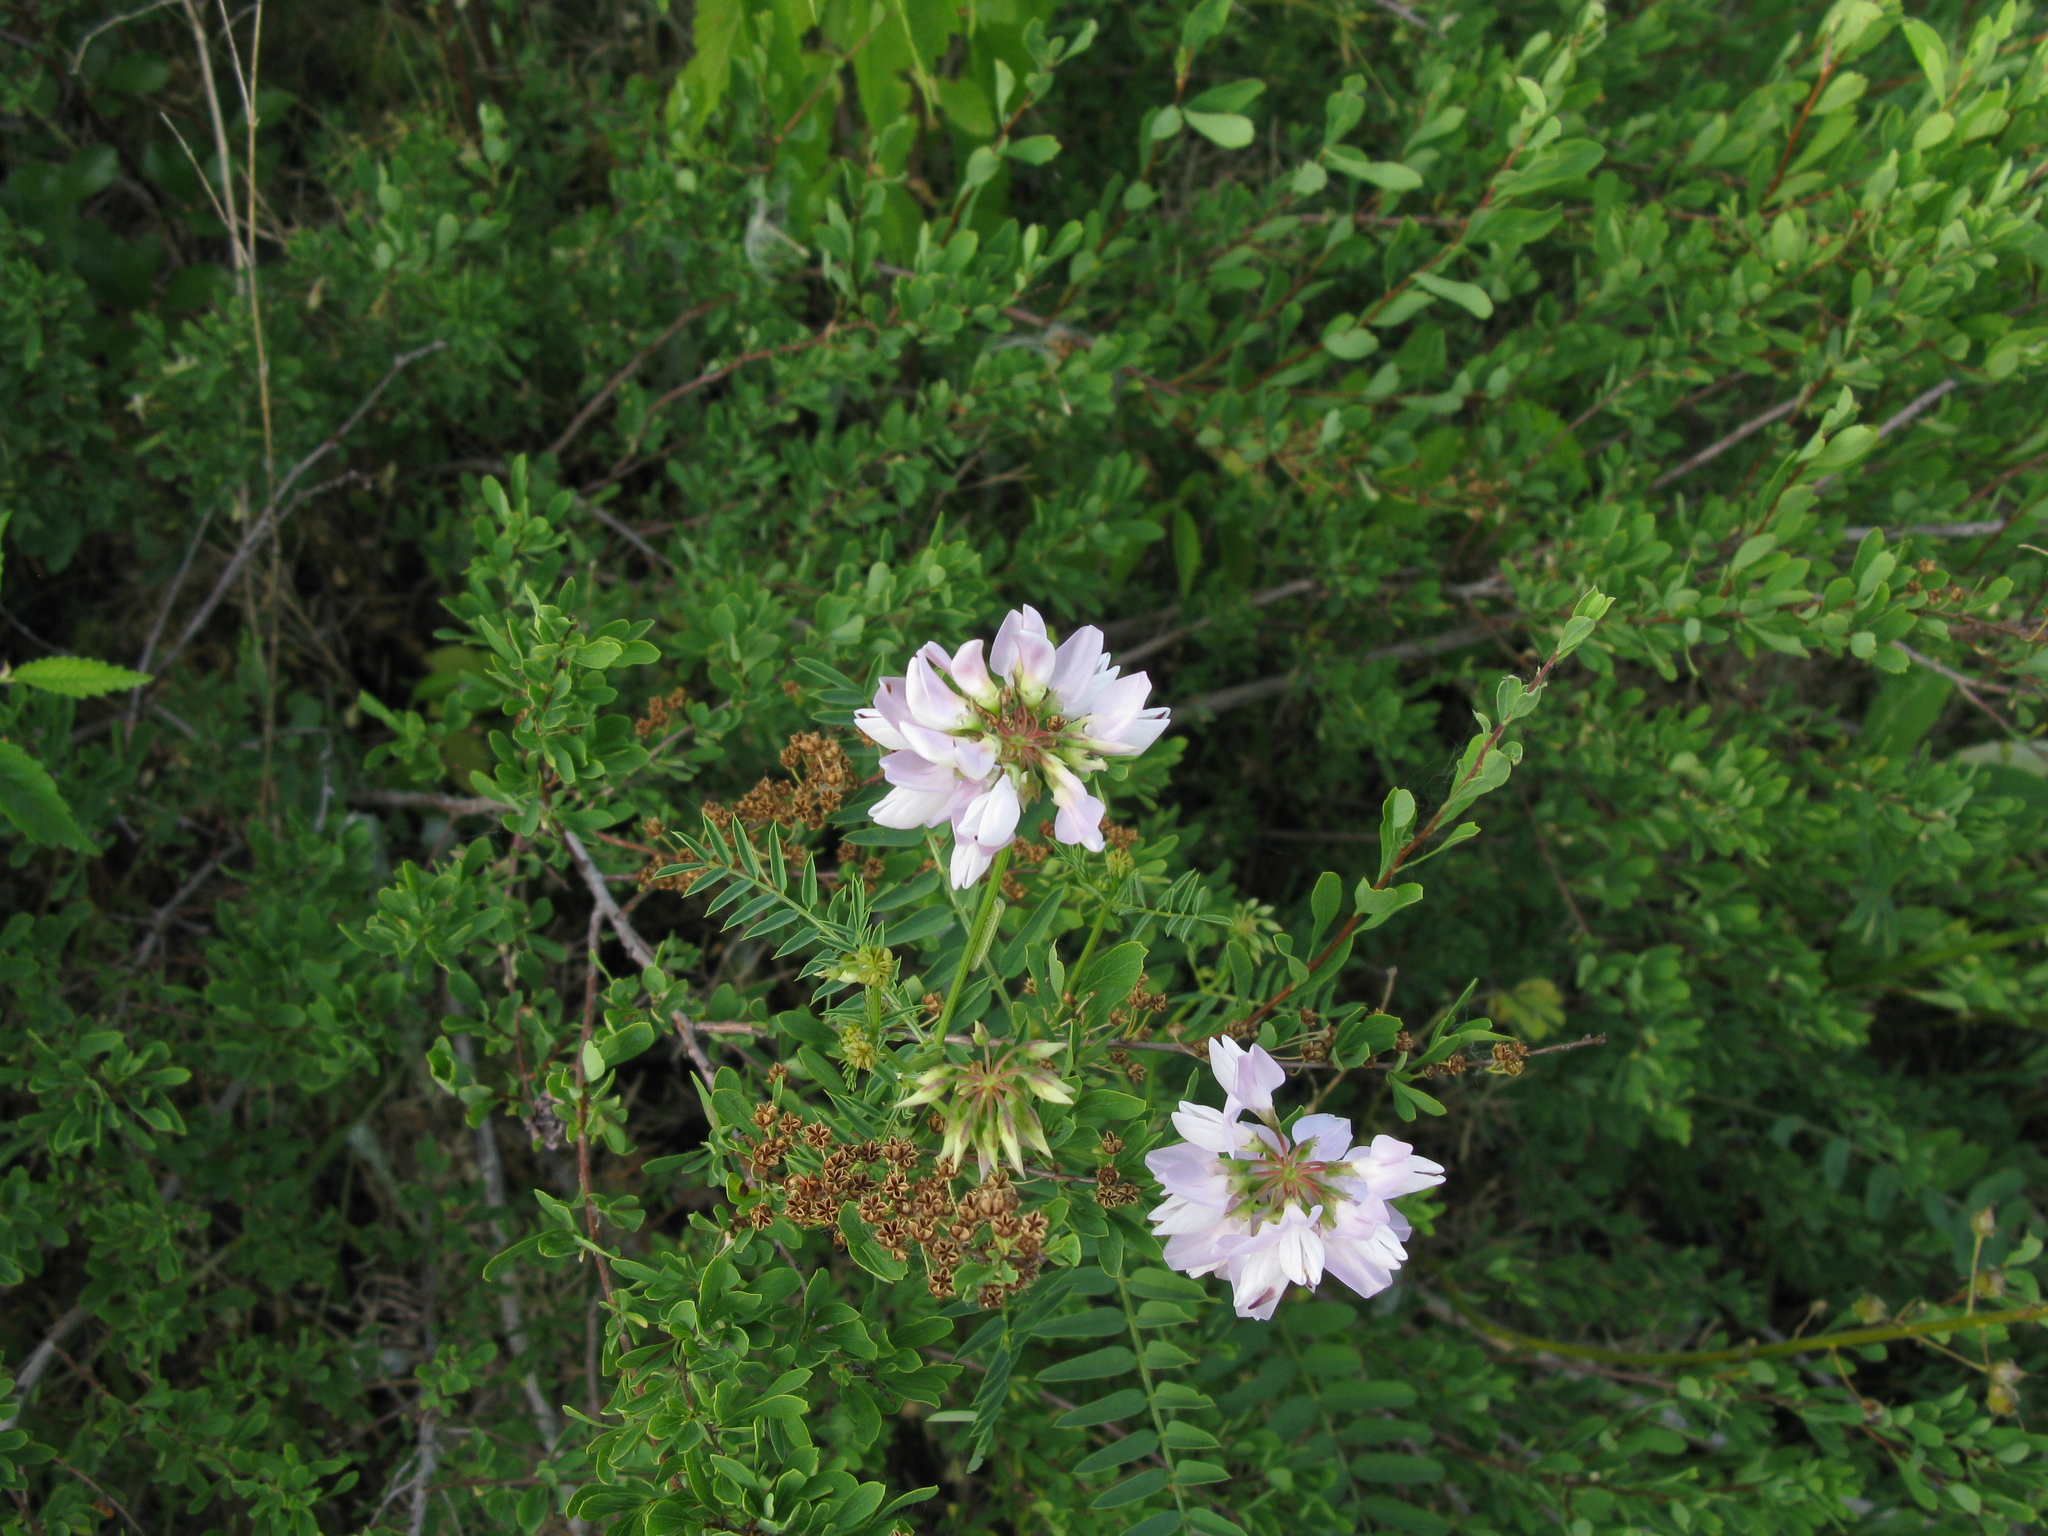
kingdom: Plantae
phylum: Tracheophyta
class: Magnoliopsida
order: Fabales
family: Fabaceae
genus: Coronilla
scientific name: Coronilla varia
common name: Crownvetch
